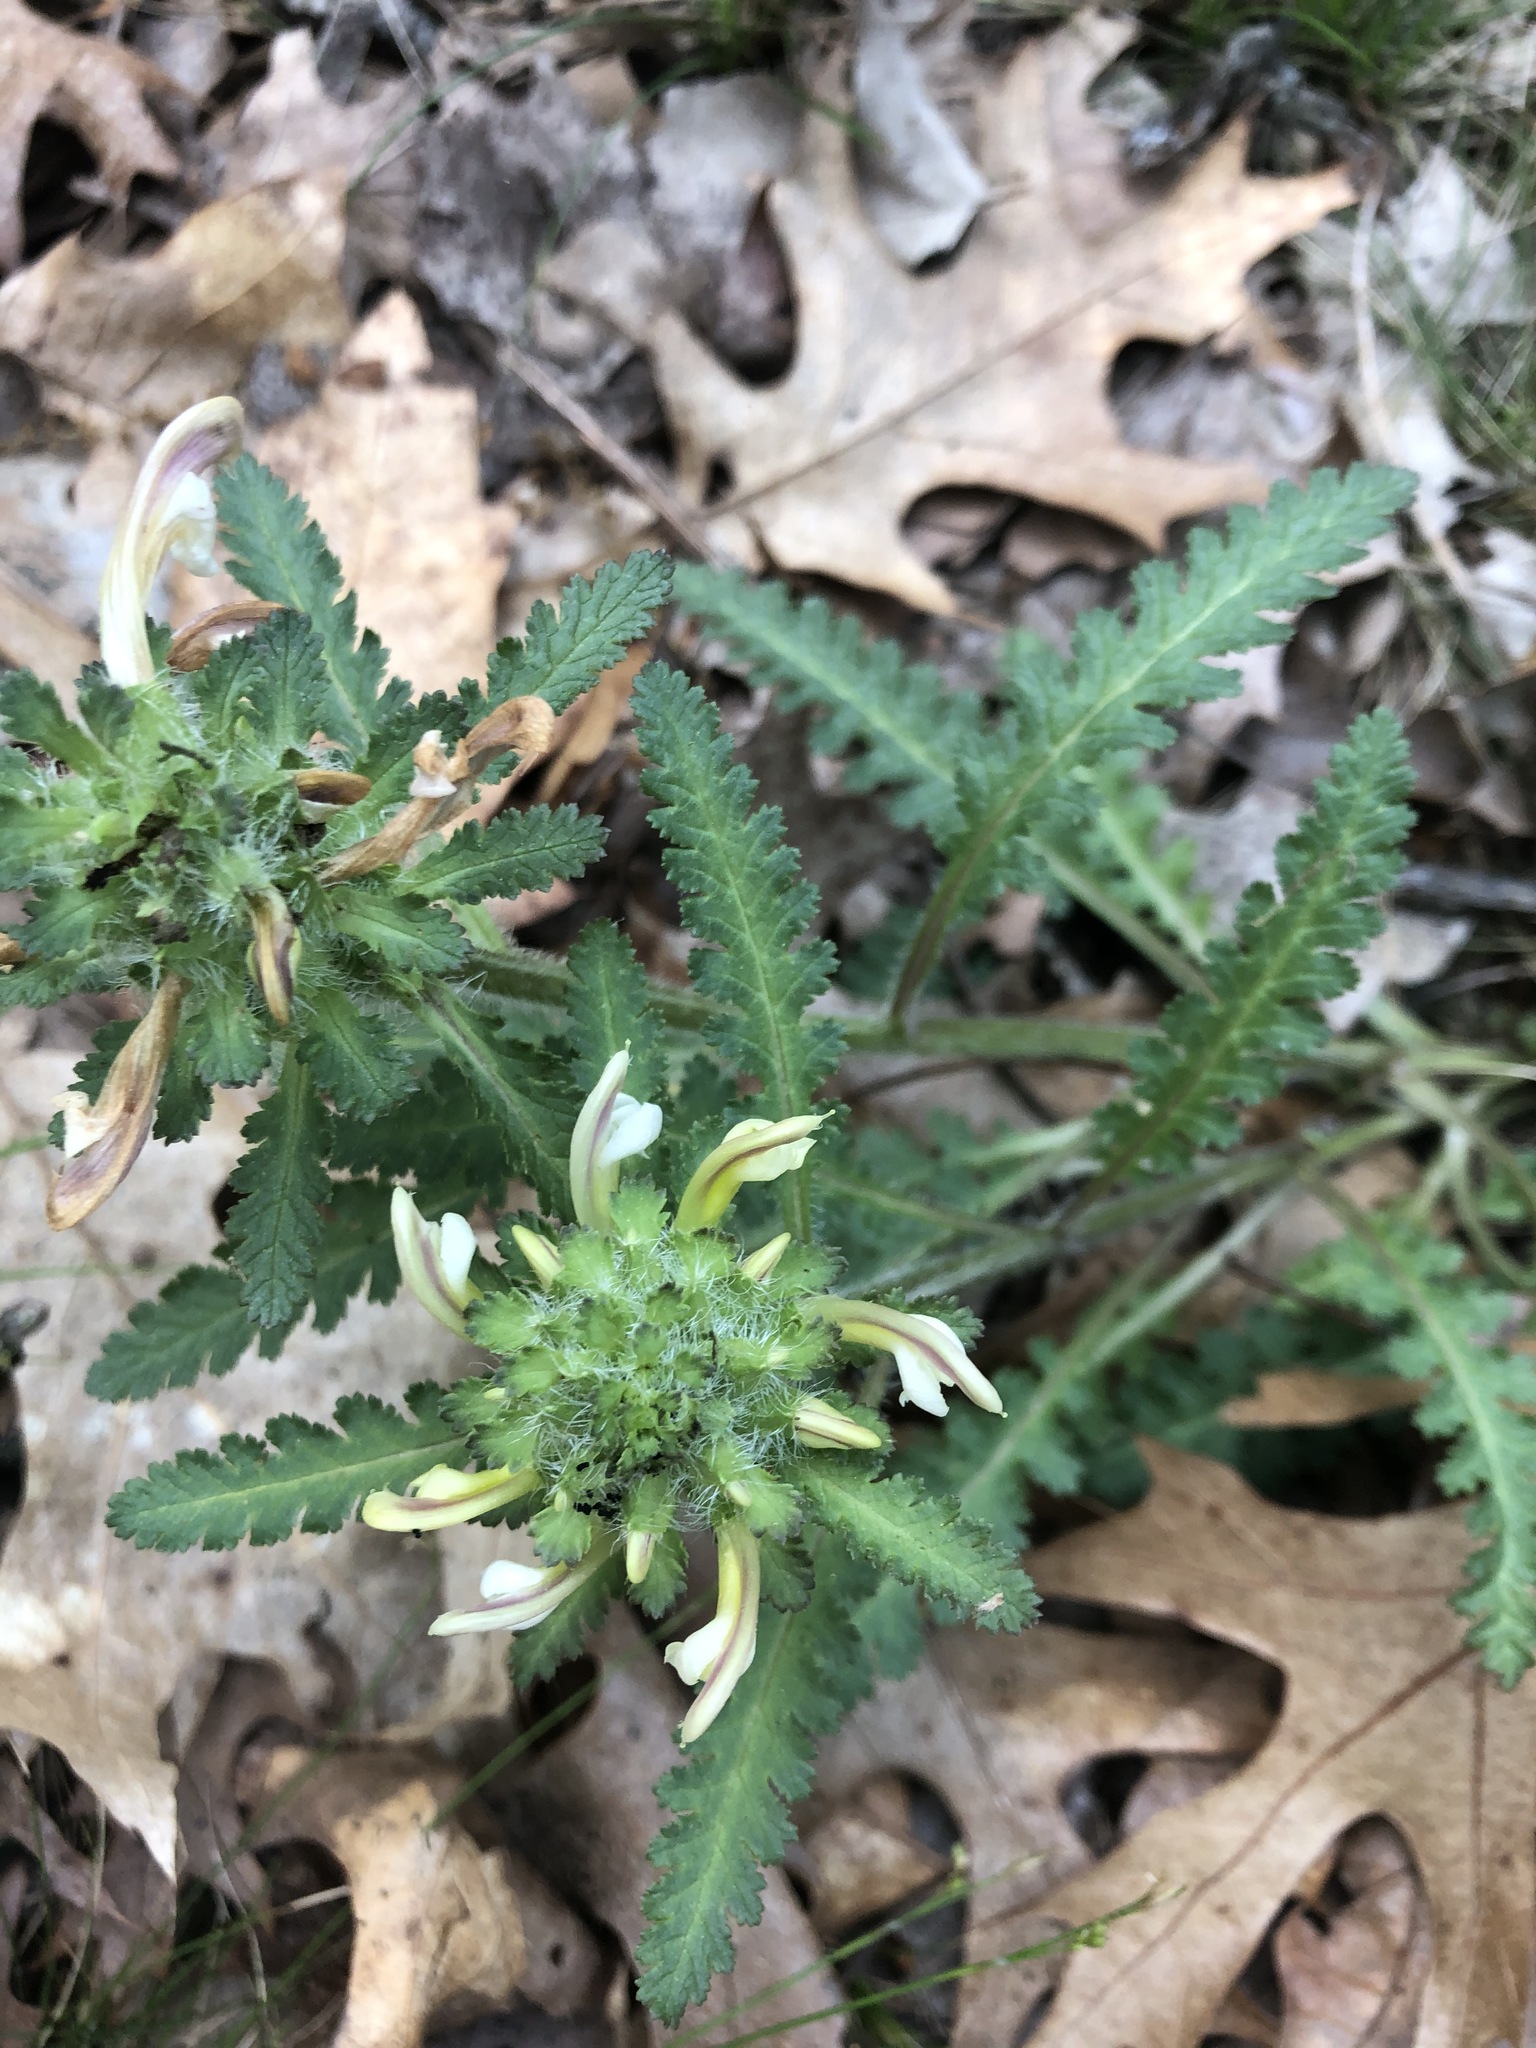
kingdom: Plantae
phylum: Tracheophyta
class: Magnoliopsida
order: Lamiales
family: Orobanchaceae
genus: Pedicularis
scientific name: Pedicularis canadensis
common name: Early lousewort
